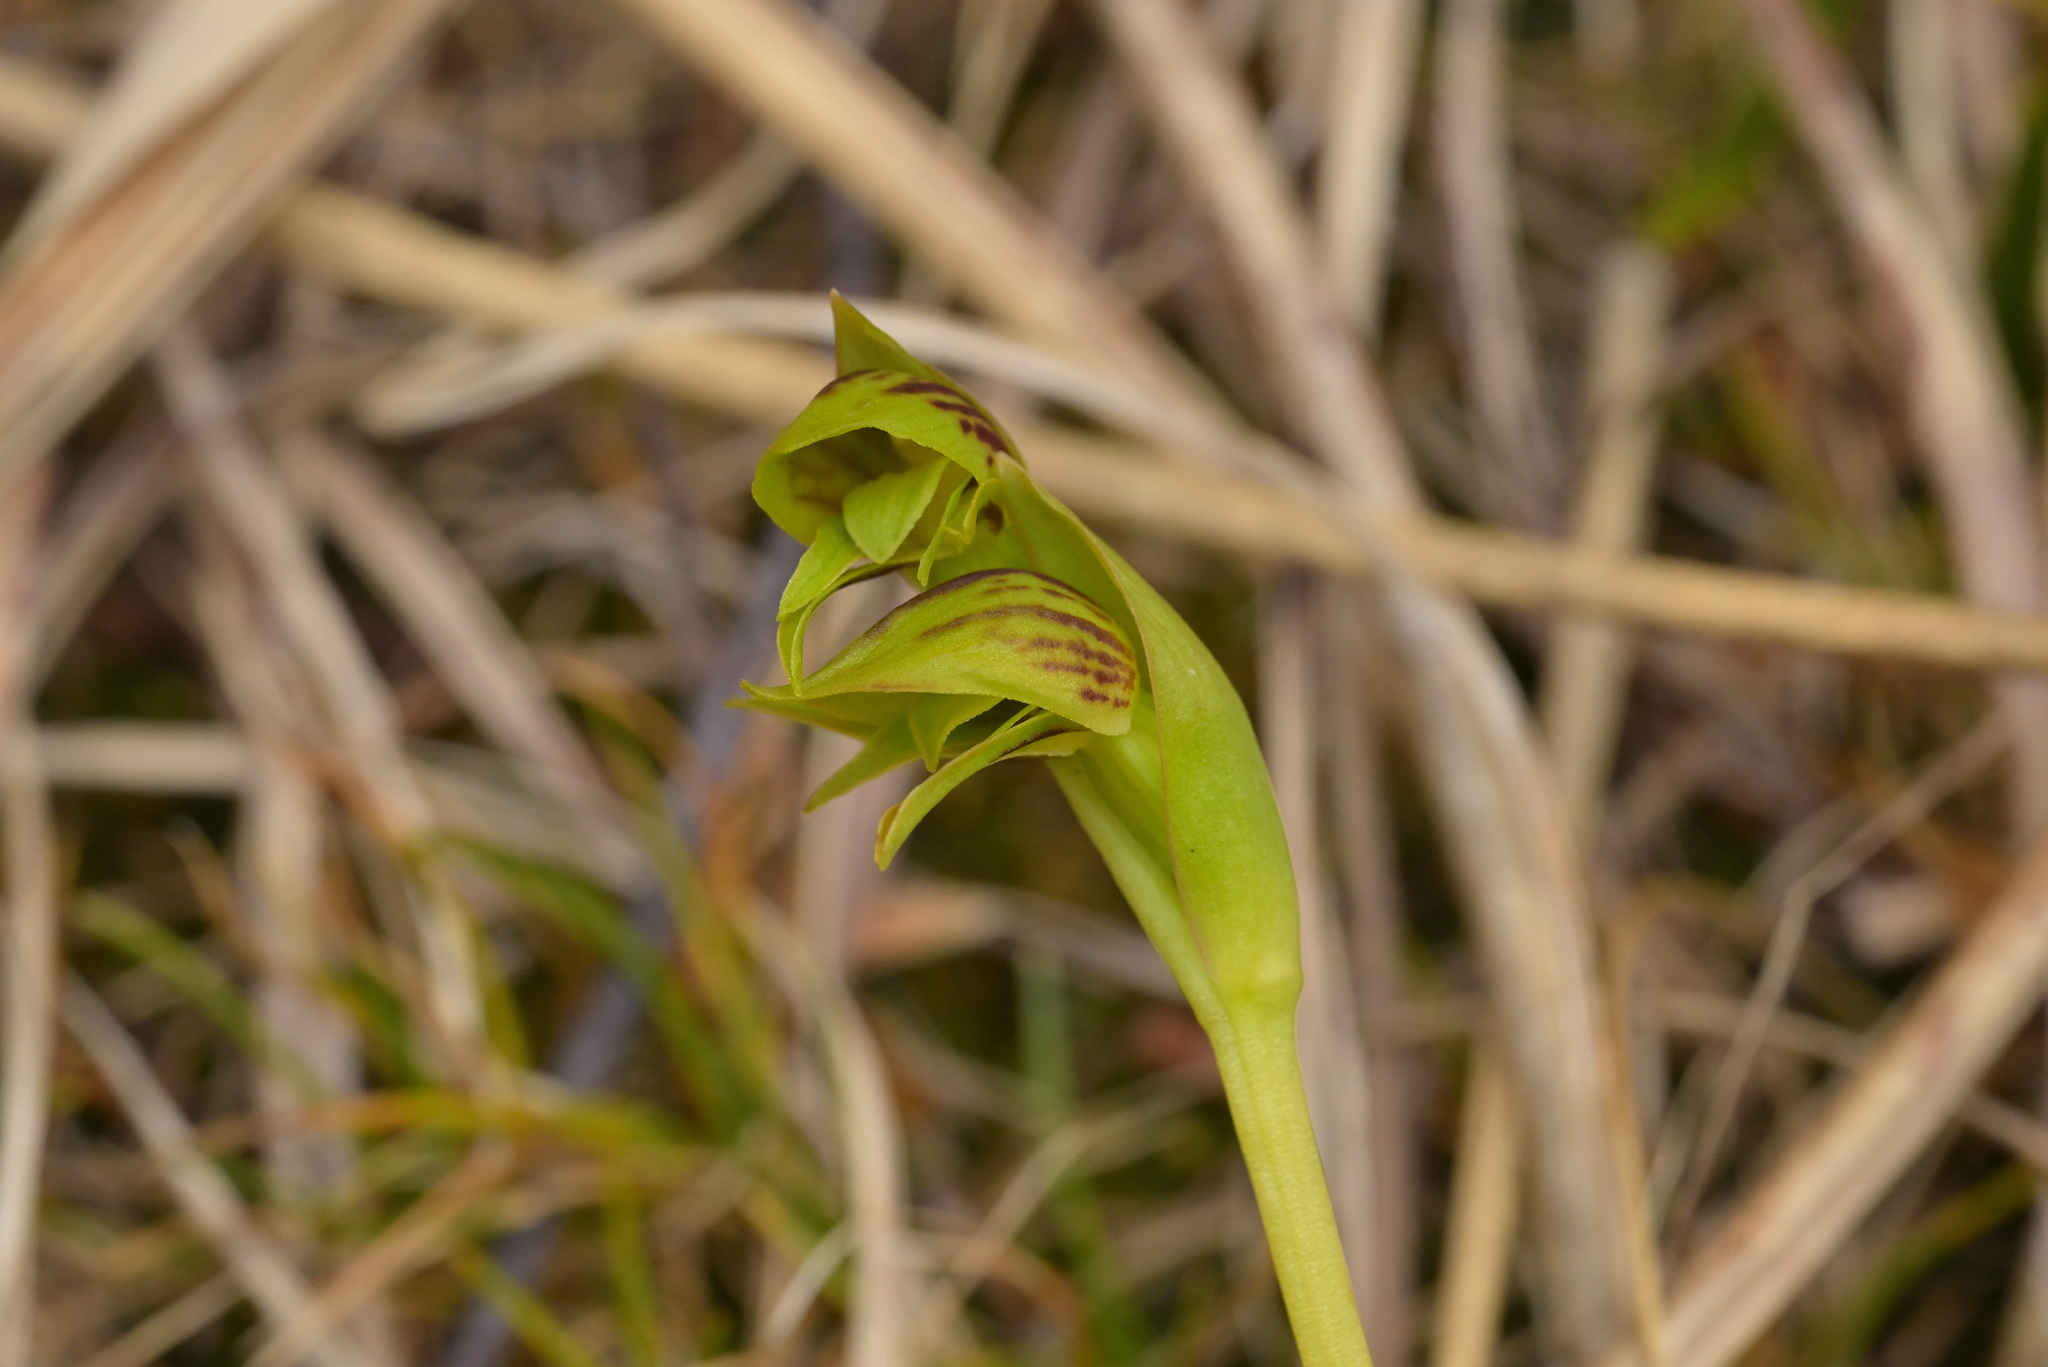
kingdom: Plantae
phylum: Tracheophyta
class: Liliopsida
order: Asparagales
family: Orchidaceae
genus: Waireia
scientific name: Waireia stenopetala
